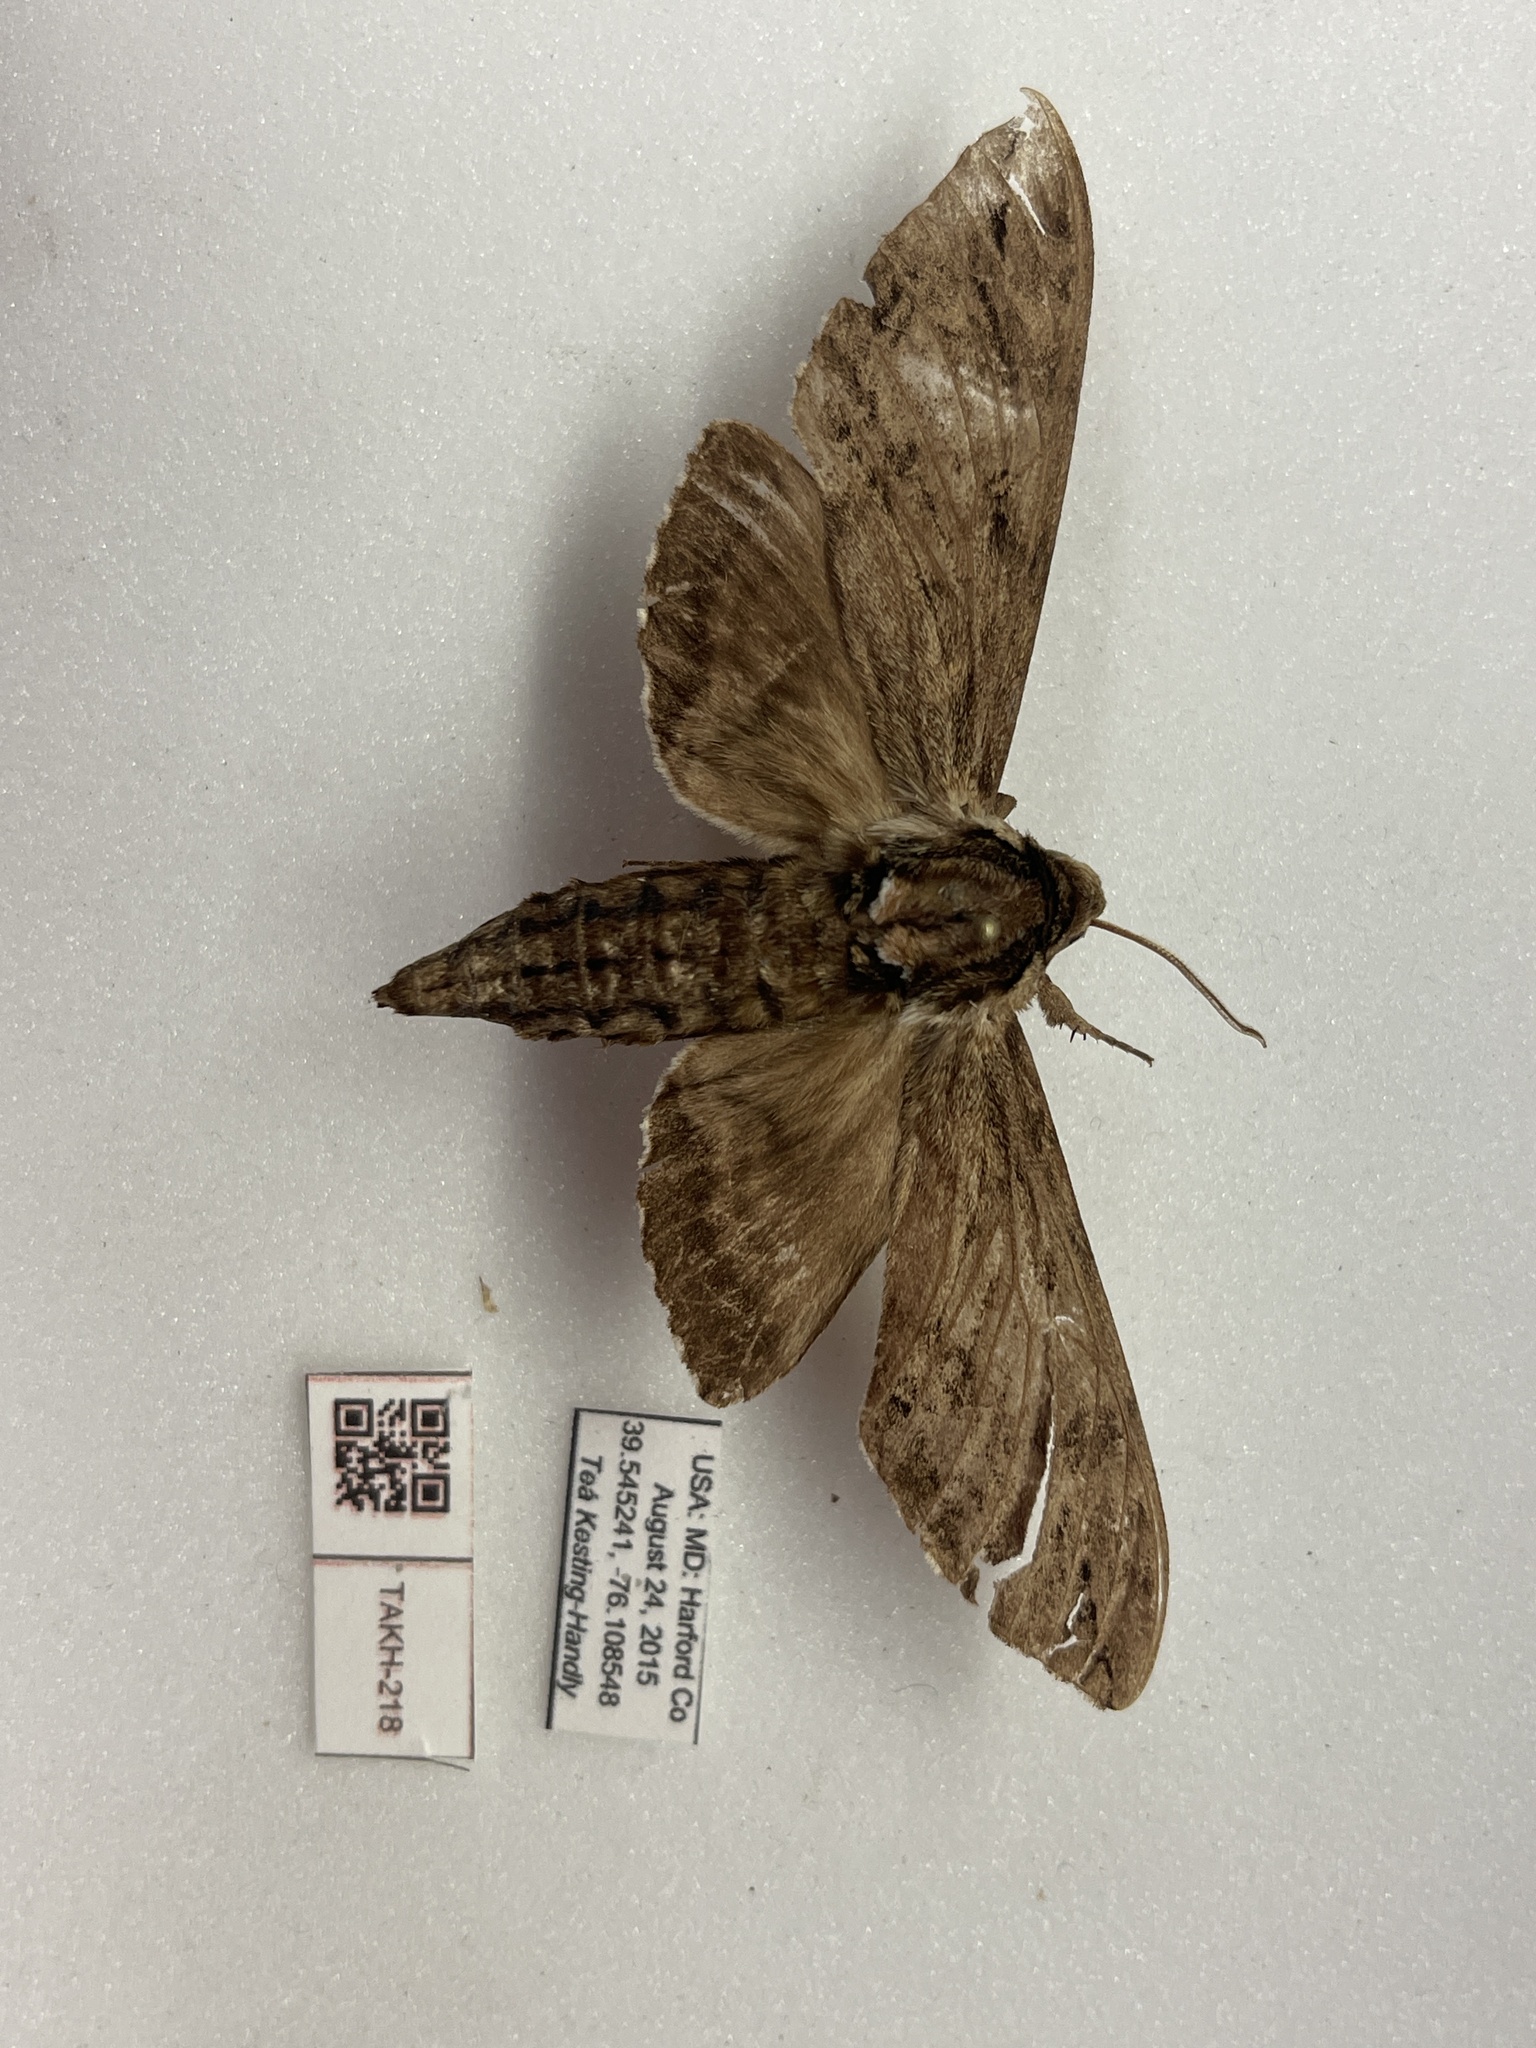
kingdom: Animalia
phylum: Arthropoda
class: Insecta
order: Lepidoptera
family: Sphingidae
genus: Ceratomia
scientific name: Ceratomia catalpae
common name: Catalpa hornworm
